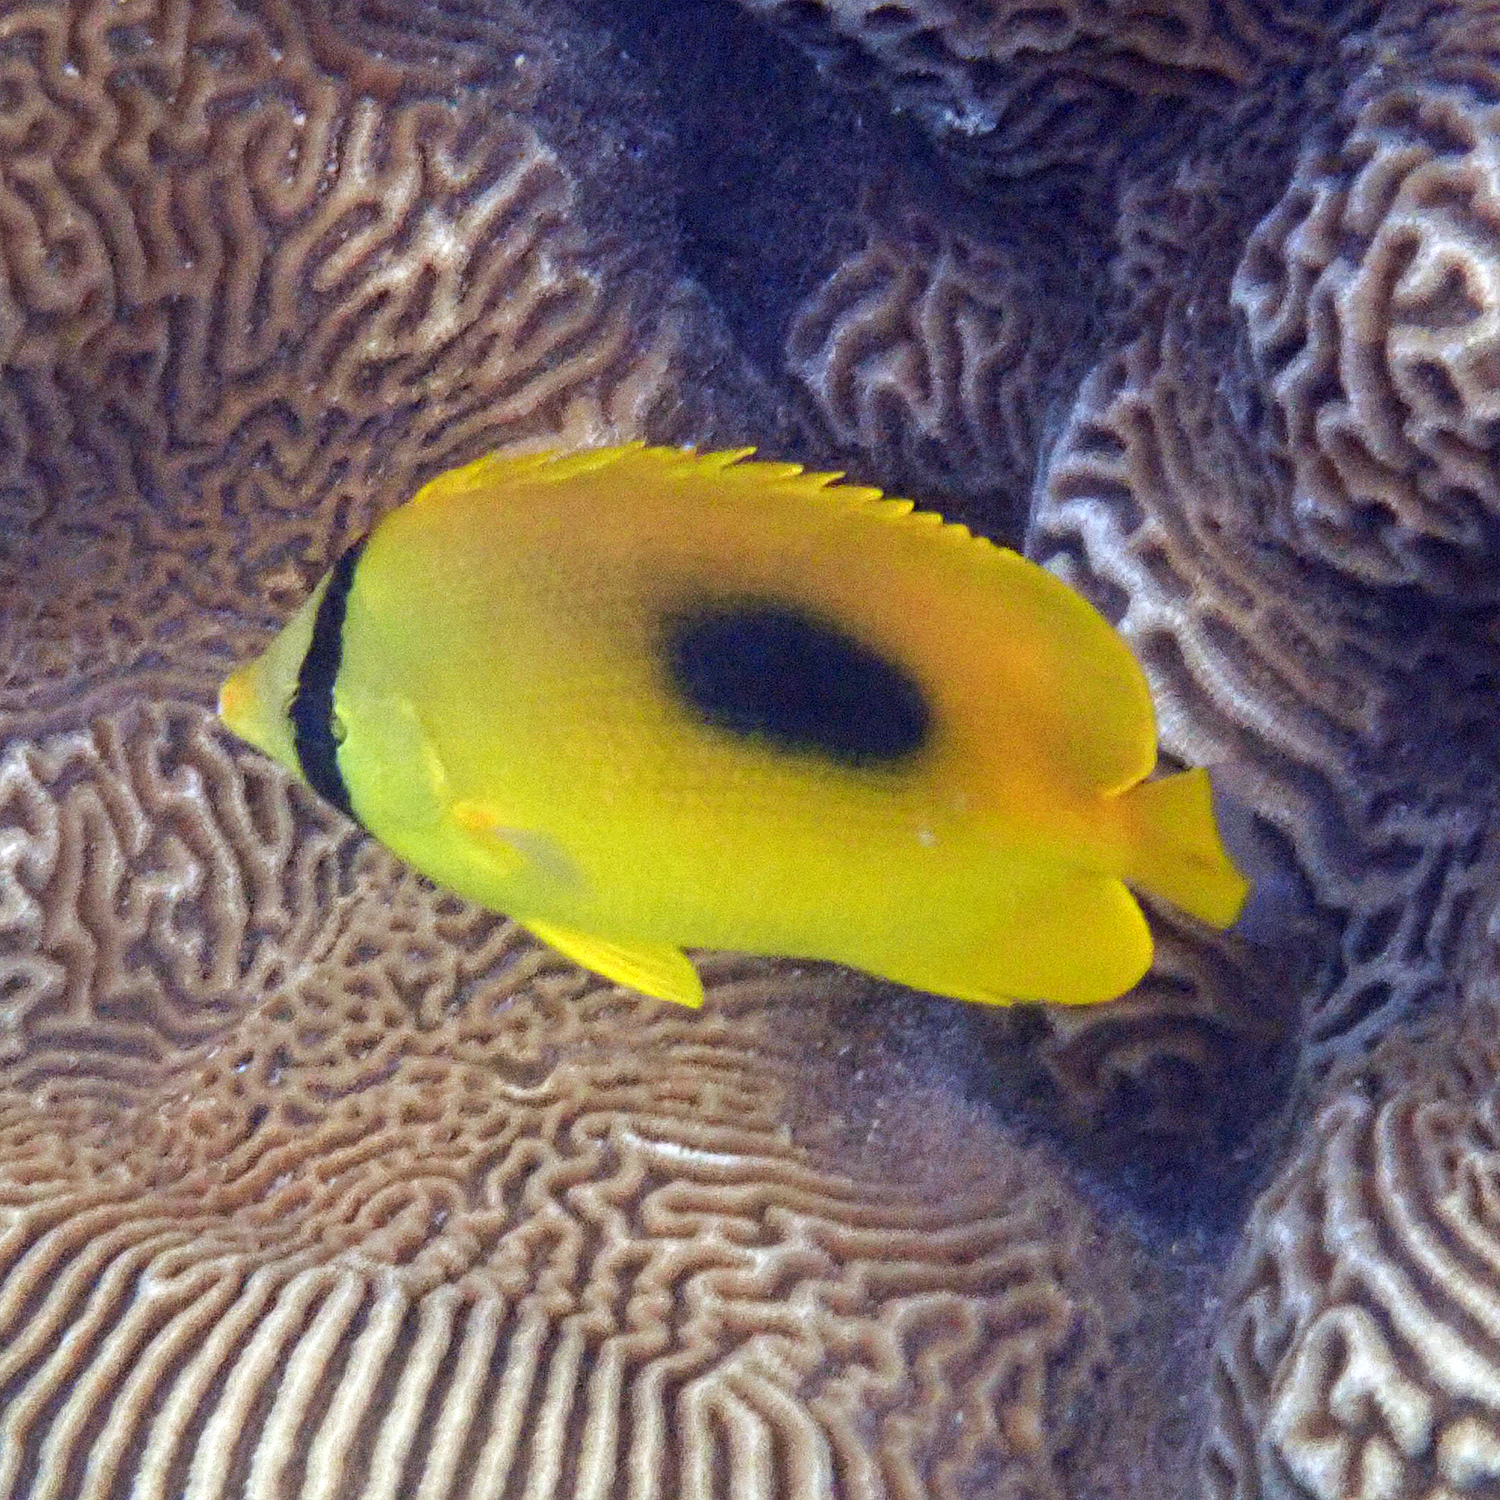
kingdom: Animalia
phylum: Chordata
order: Perciformes
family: Chaetodontidae
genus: Chaetodon
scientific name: Chaetodon speculum
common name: Mirror butterflyfish
